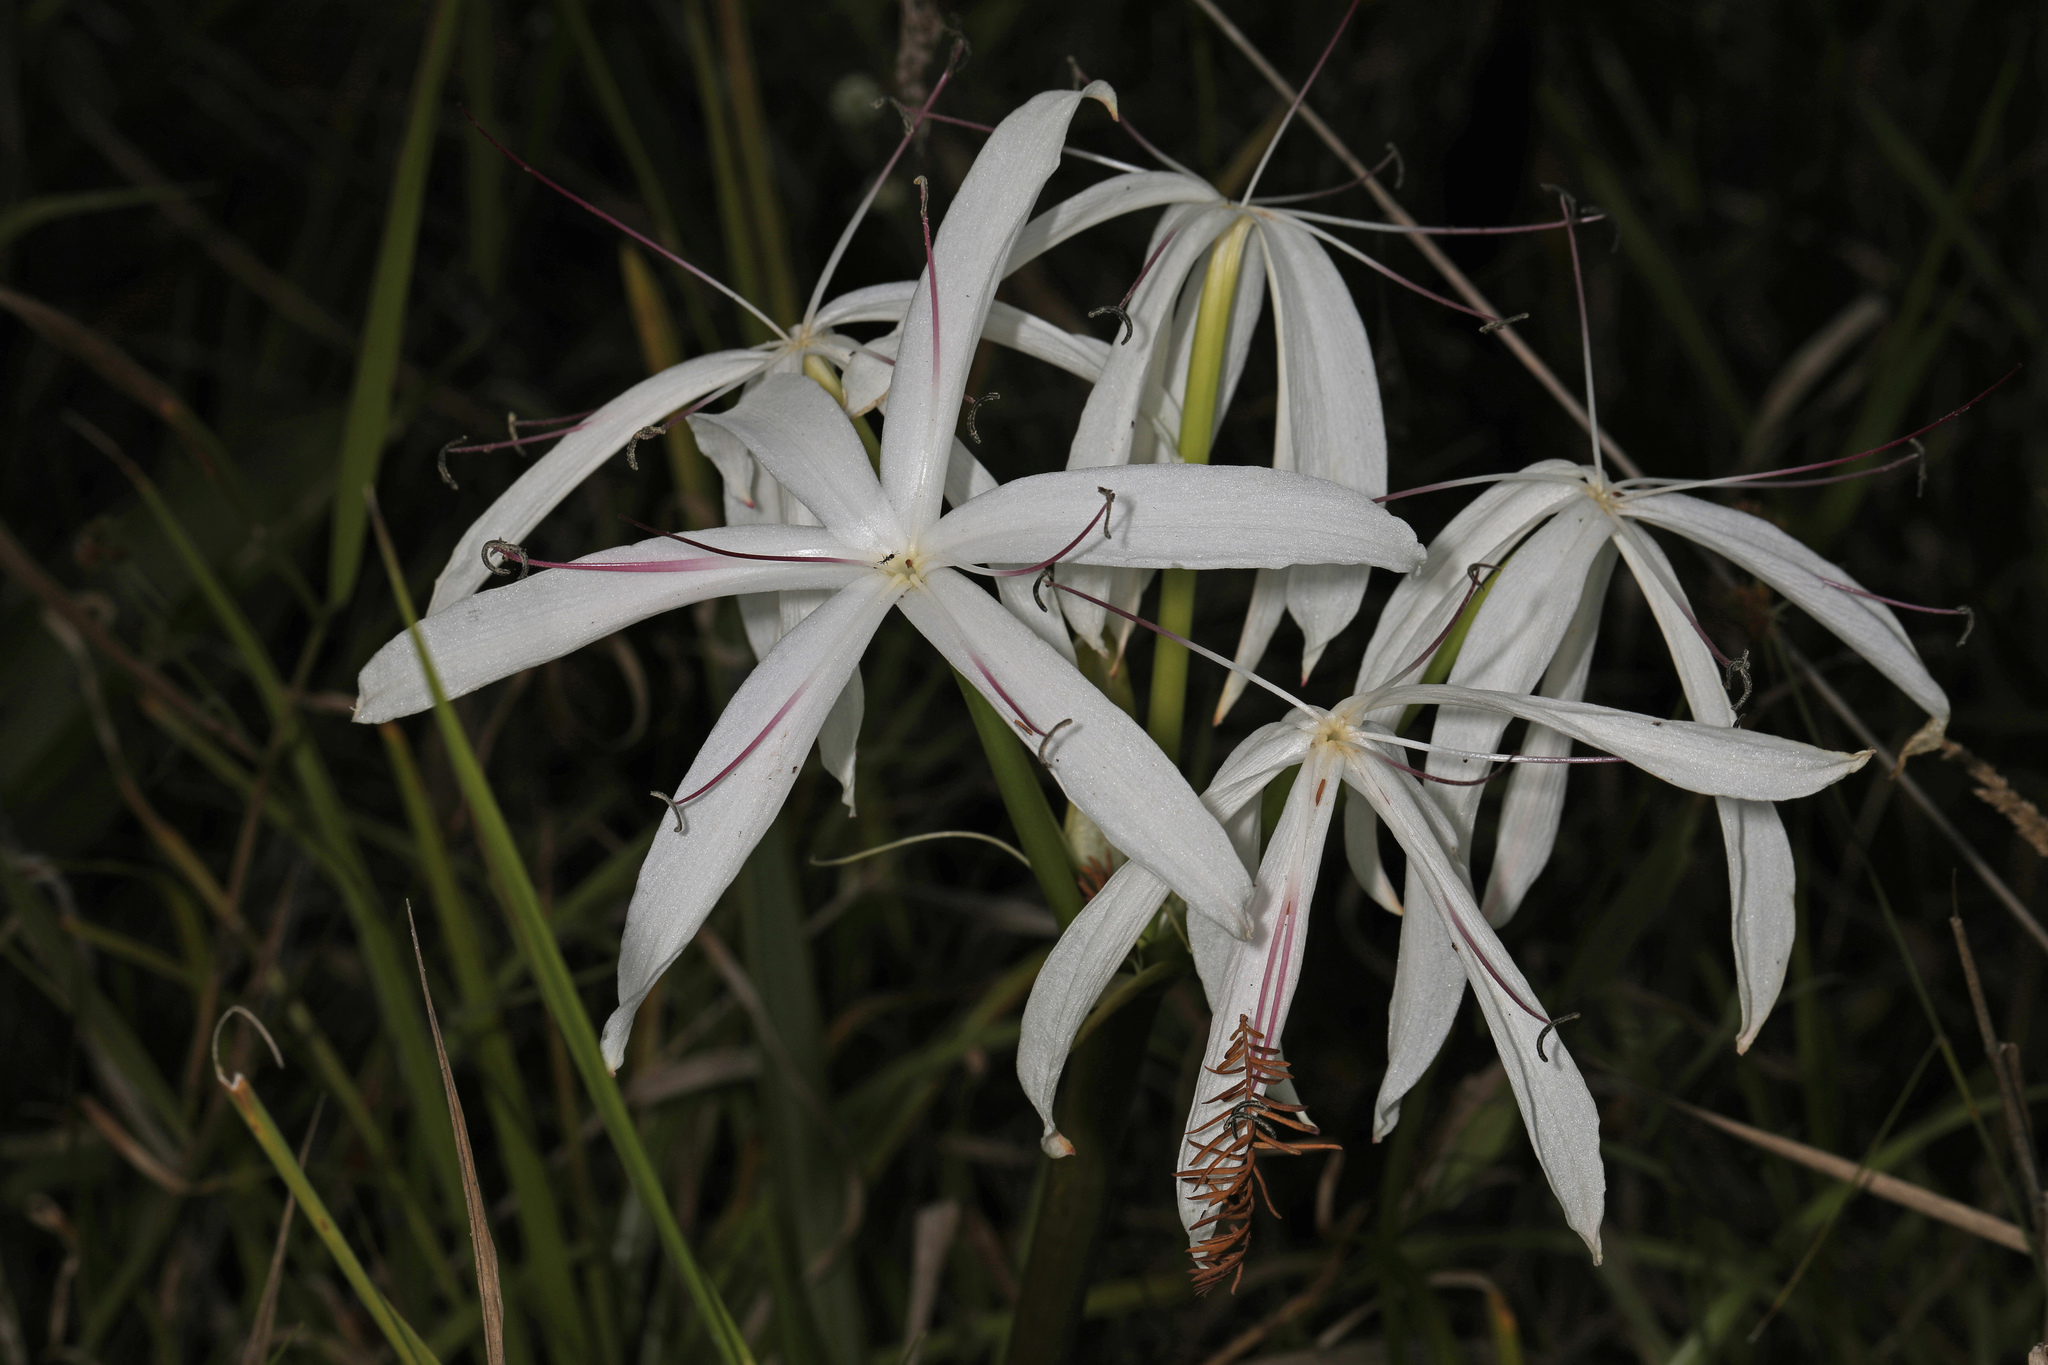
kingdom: Plantae
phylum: Tracheophyta
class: Liliopsida
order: Asparagales
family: Amaryllidaceae
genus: Crinum
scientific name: Crinum americanum
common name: Florida swamp-lily
